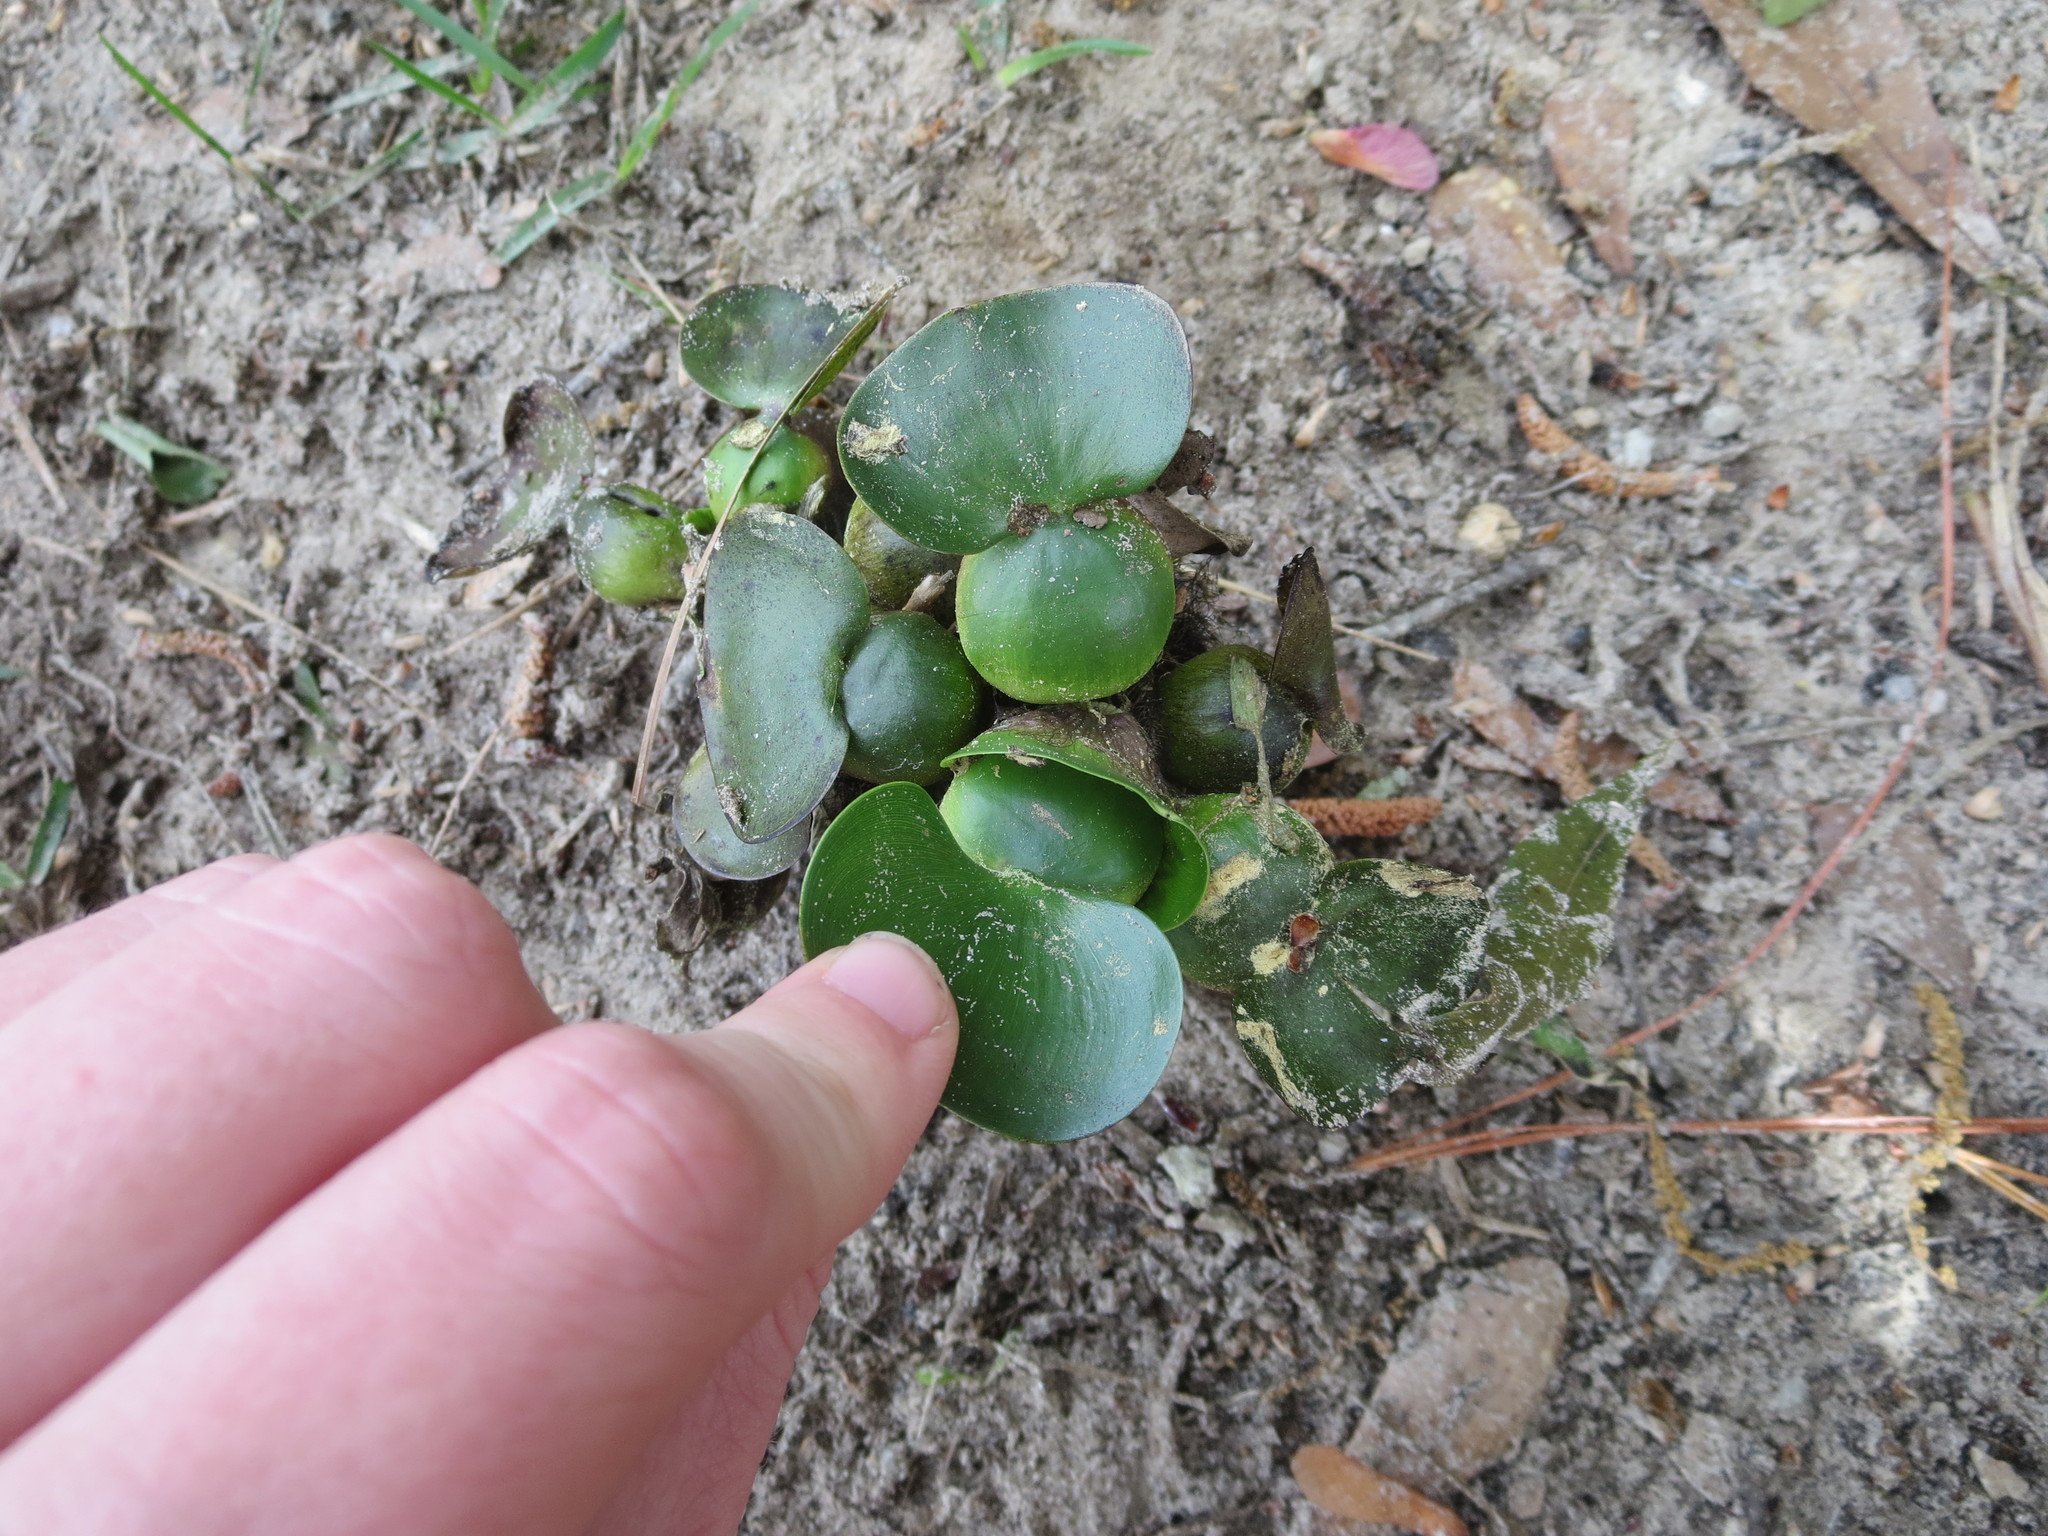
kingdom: Plantae
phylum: Tracheophyta
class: Liliopsida
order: Commelinales
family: Pontederiaceae
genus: Pontederia
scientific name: Pontederia crassipes
